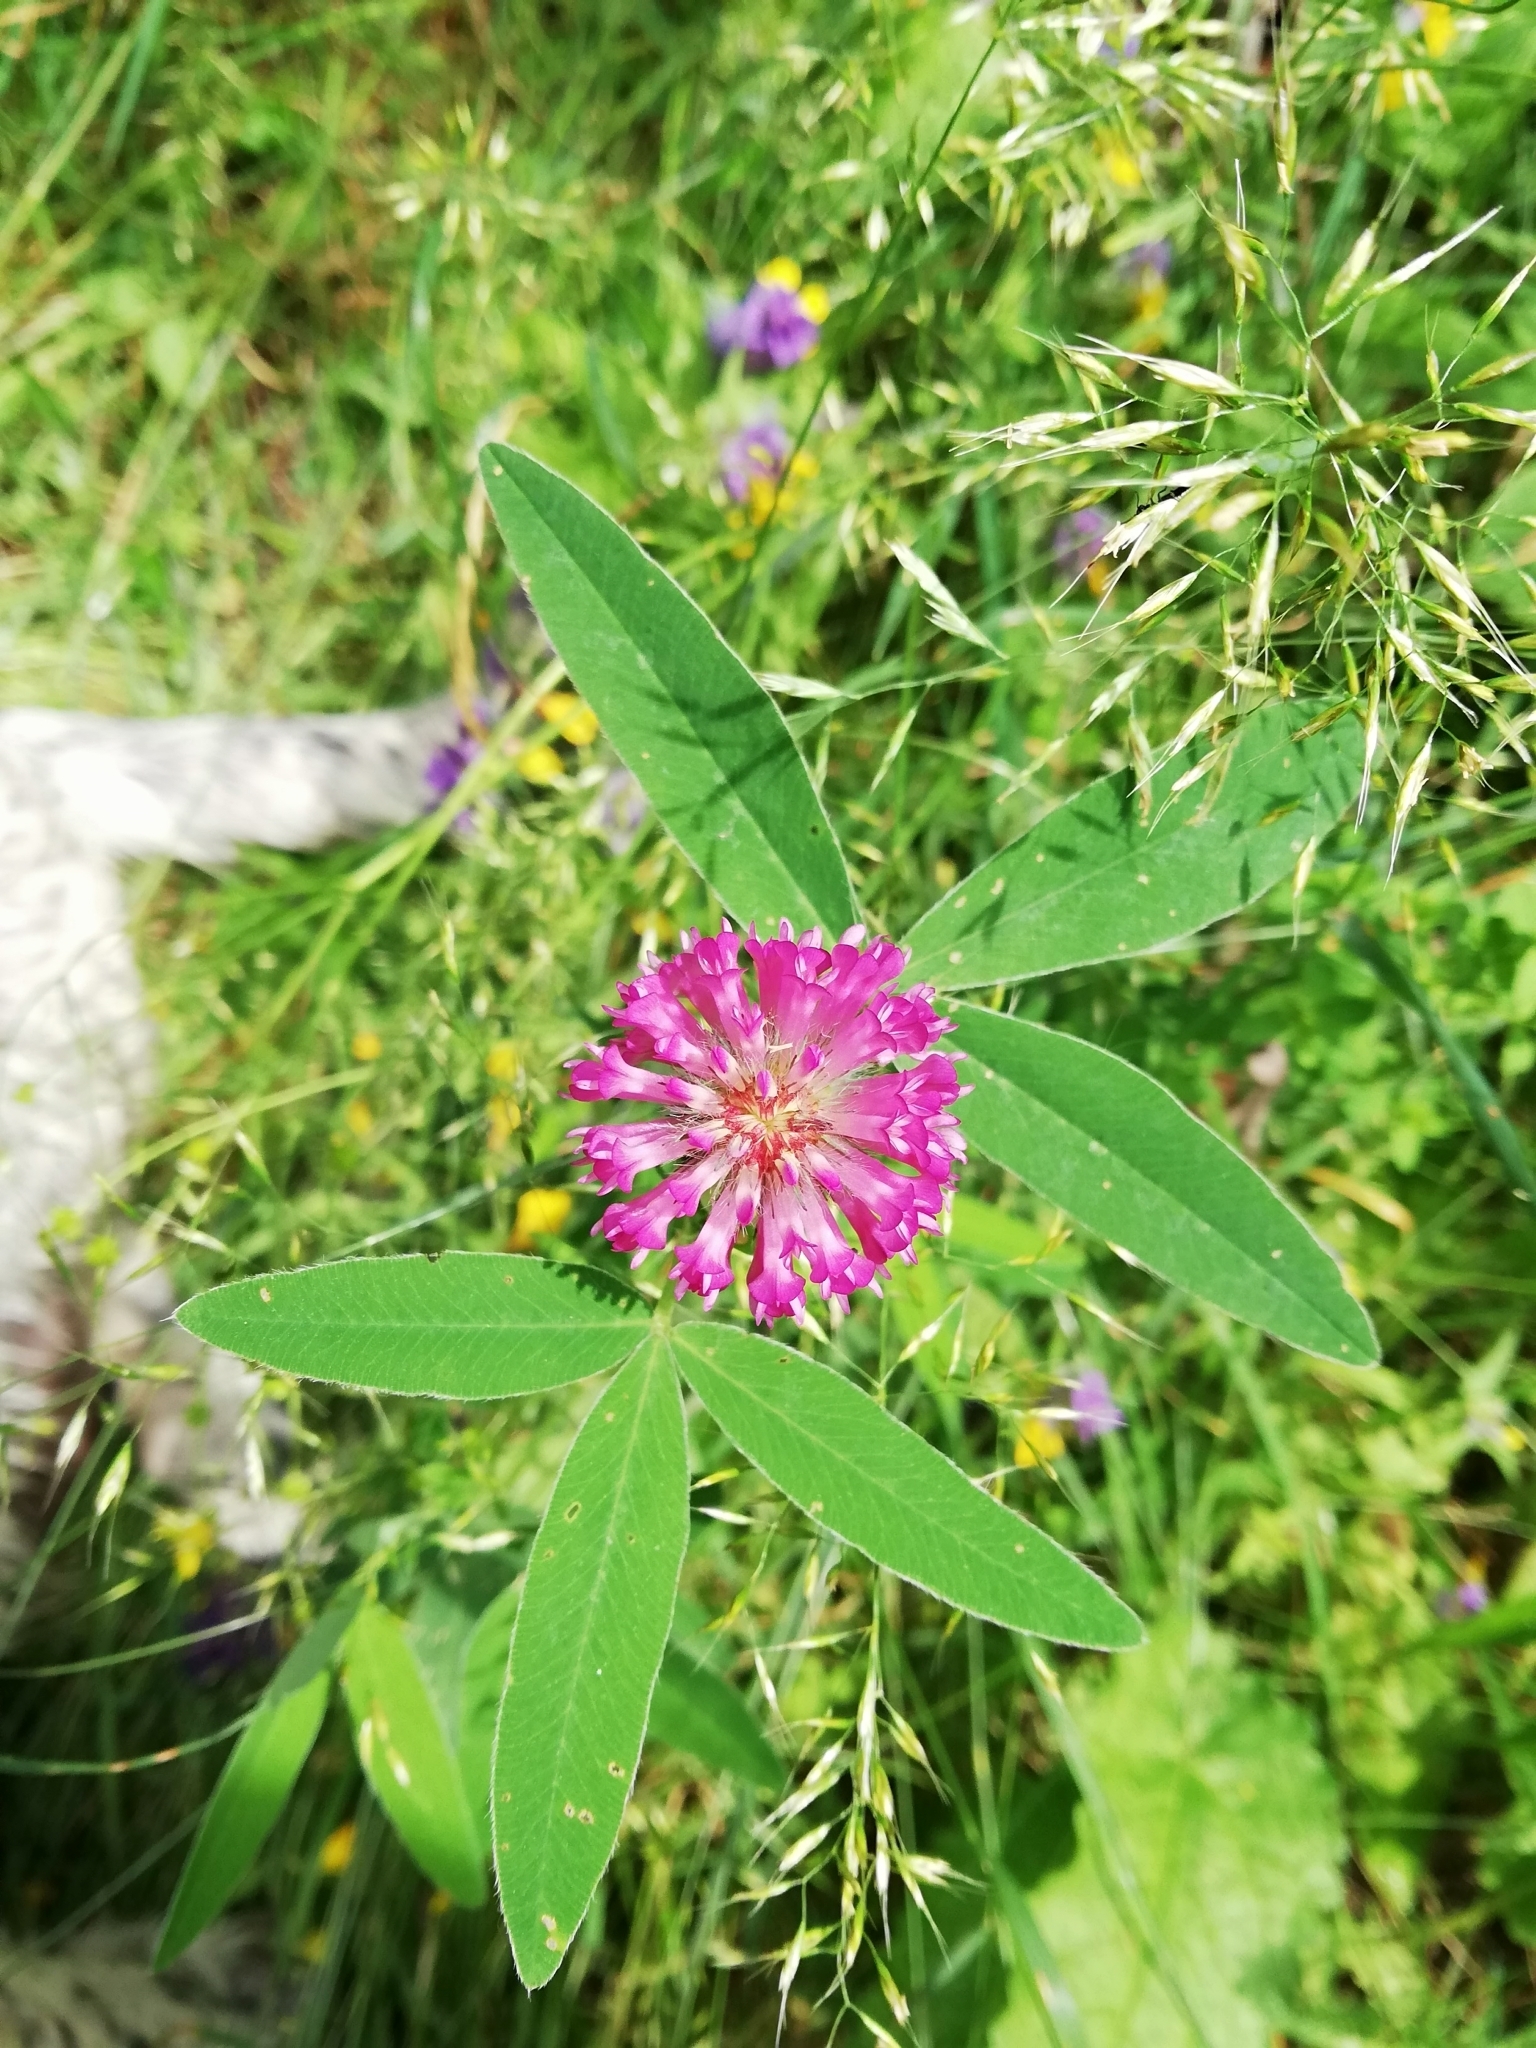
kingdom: Plantae
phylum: Tracheophyta
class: Magnoliopsida
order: Fabales
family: Fabaceae
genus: Trifolium
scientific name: Trifolium medium
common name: Zigzag clover
